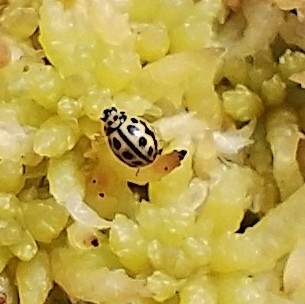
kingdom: Animalia
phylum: Arthropoda
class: Insecta
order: Coleoptera
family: Coccinellidae
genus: Tytthaspis
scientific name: Tytthaspis sedecimpunctata
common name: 16-spot ladybird
